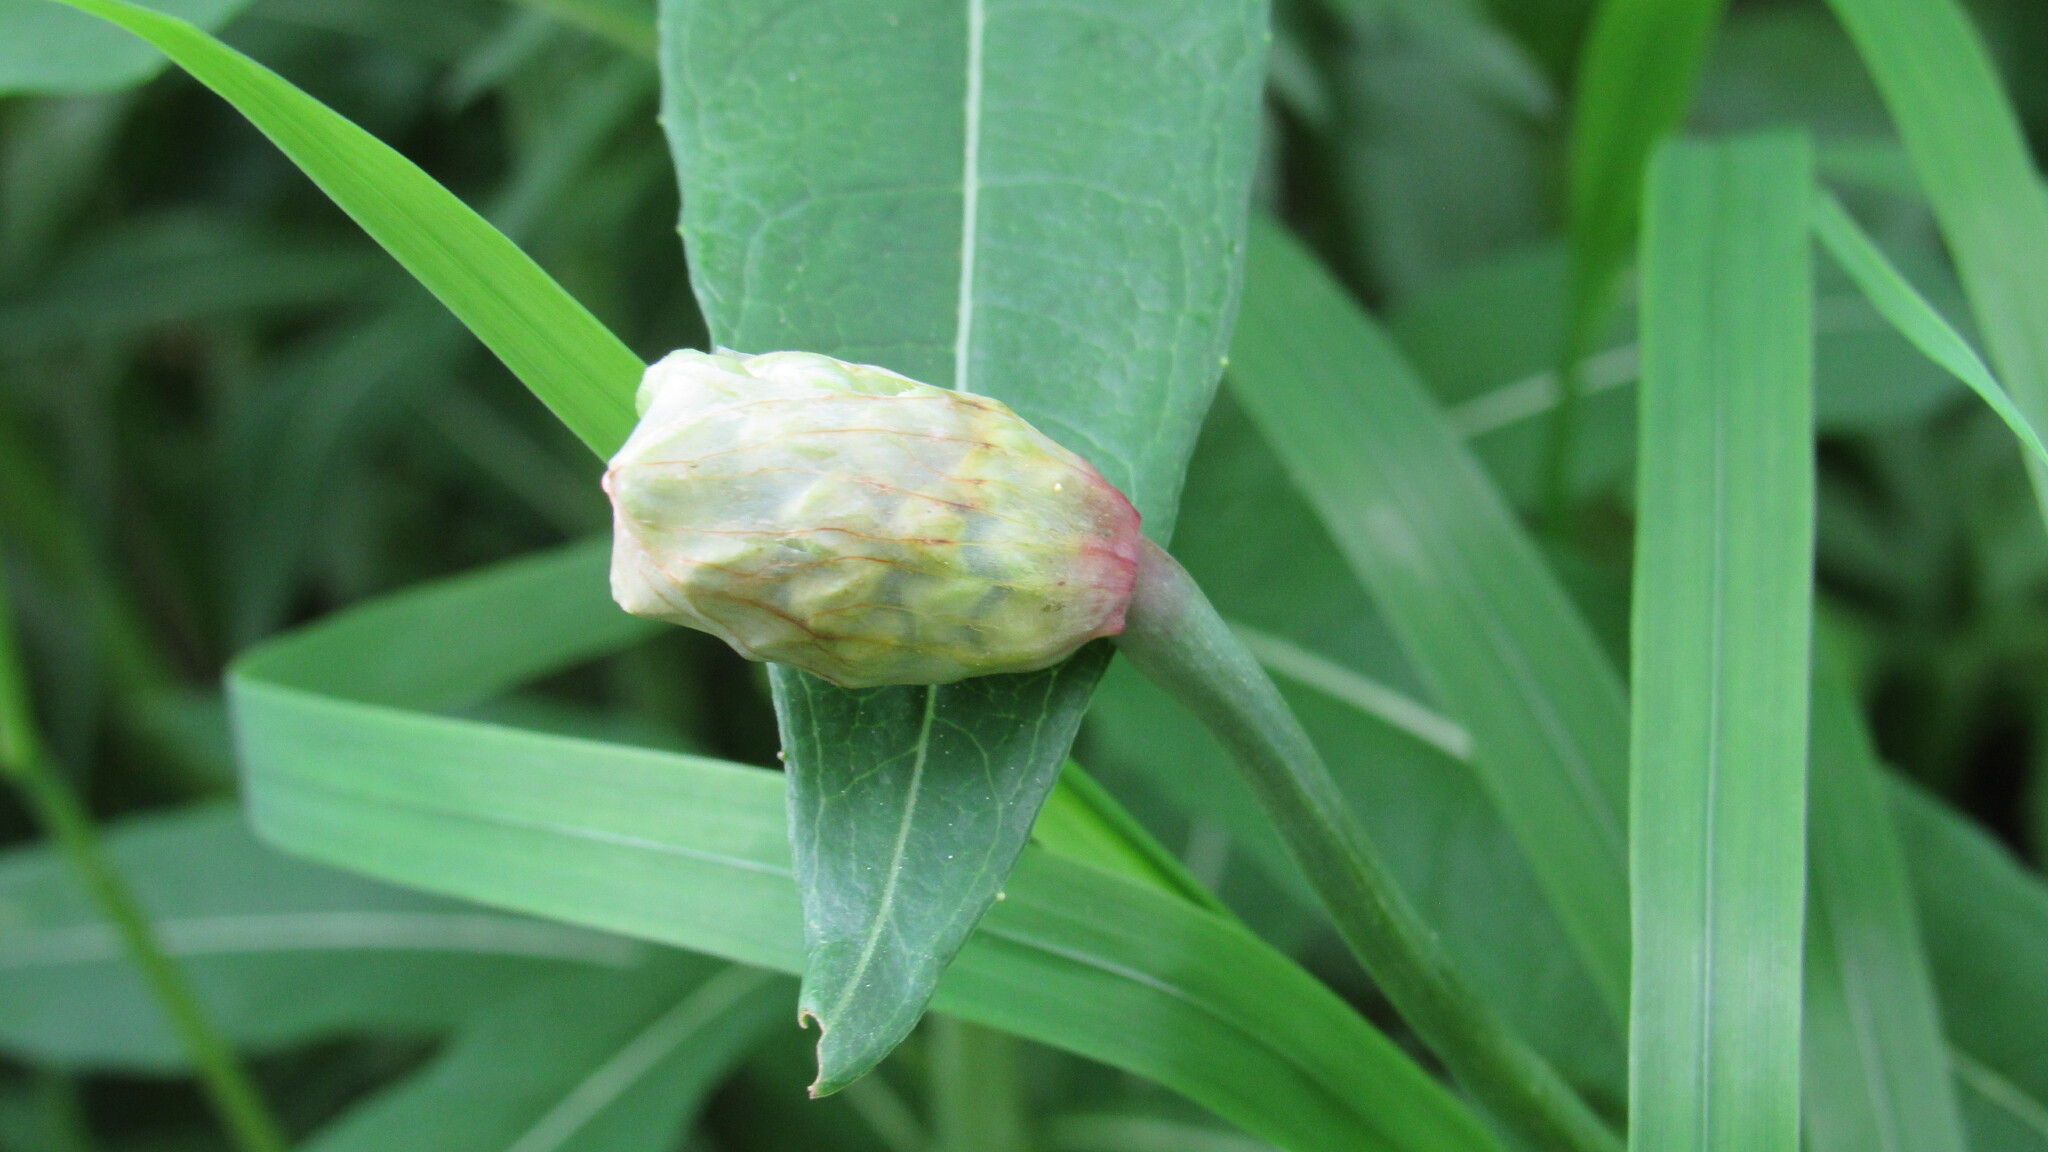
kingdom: Plantae
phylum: Tracheophyta
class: Liliopsida
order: Asparagales
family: Amaryllidaceae
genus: Allium
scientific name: Allium ochotense
